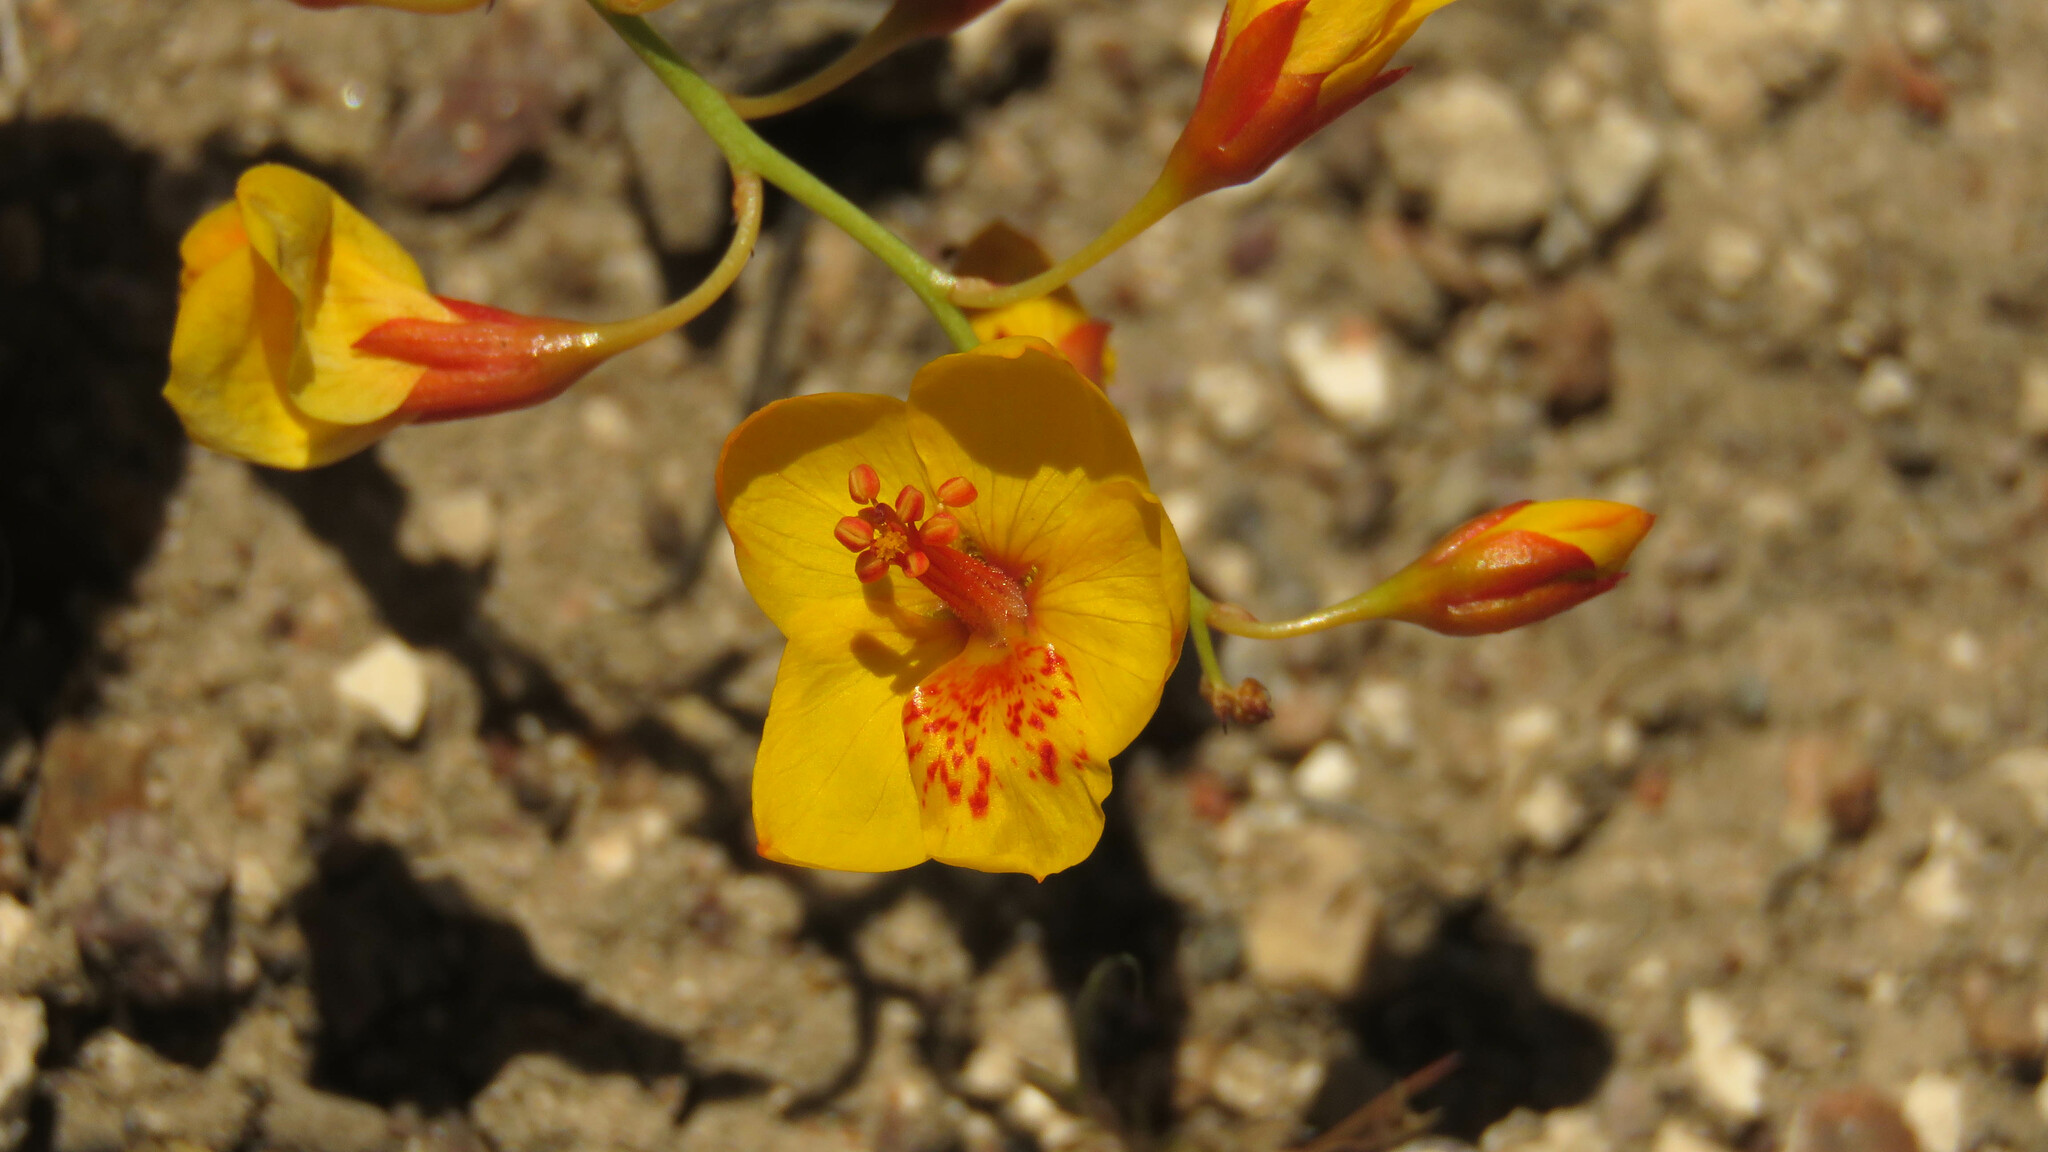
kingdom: Plantae
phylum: Tracheophyta
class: Magnoliopsida
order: Fabales
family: Fabaceae
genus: Hoffmannseggia
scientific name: Hoffmannseggia erecta
